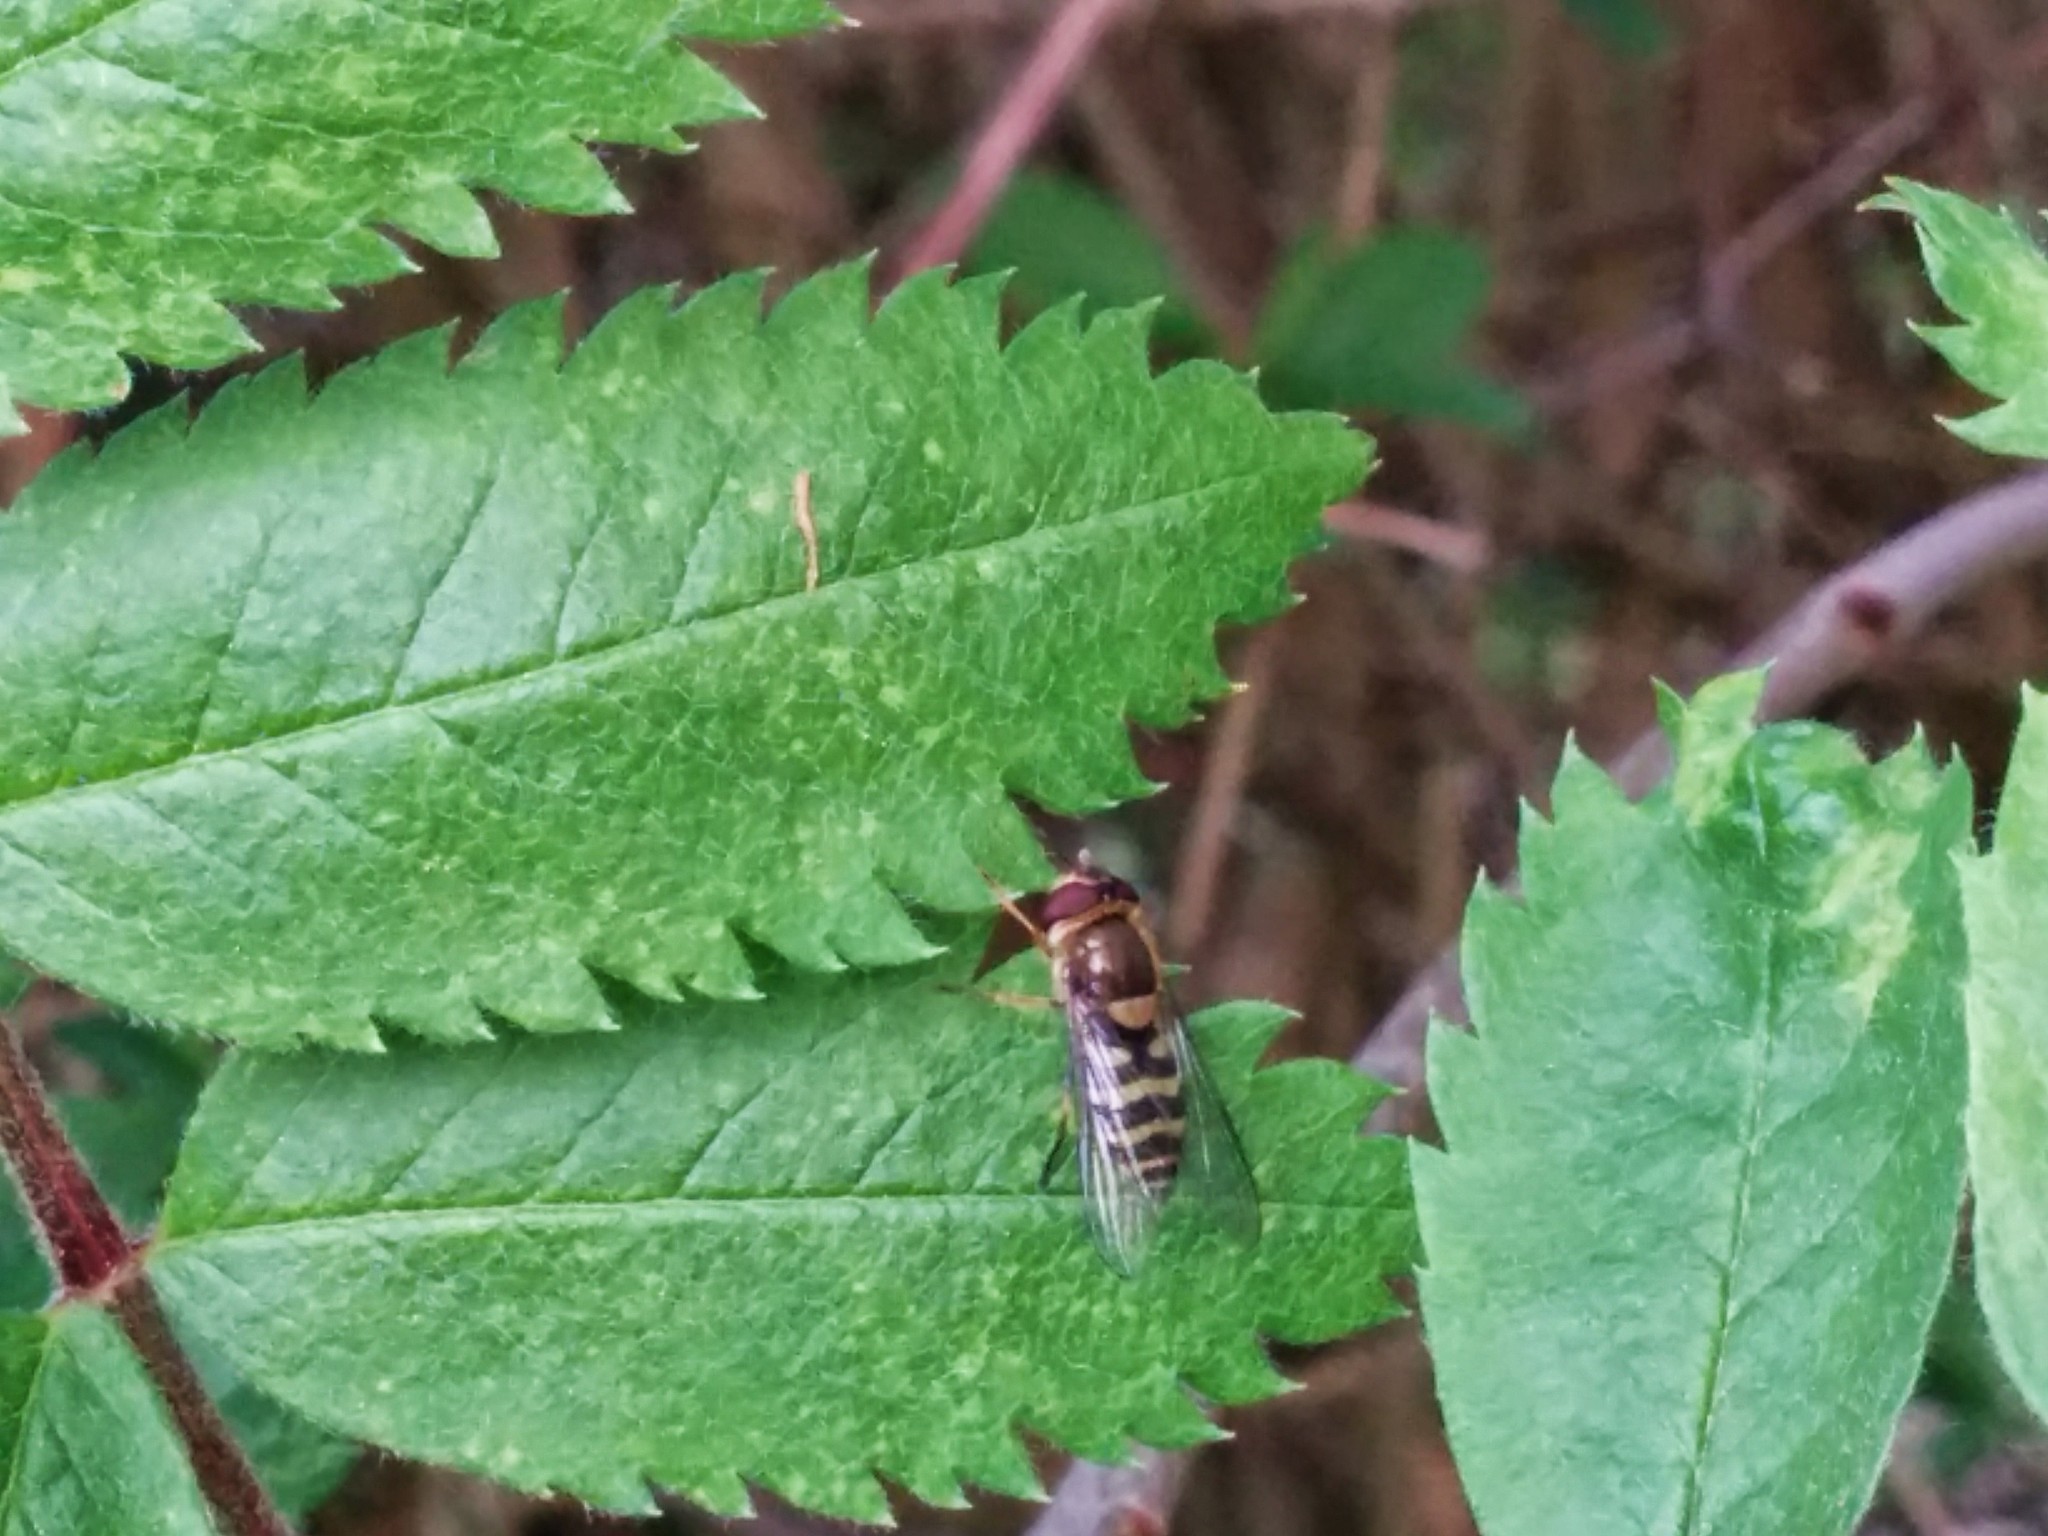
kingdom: Animalia
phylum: Arthropoda
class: Insecta
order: Diptera
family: Syrphidae
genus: Syrphus
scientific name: Syrphus
